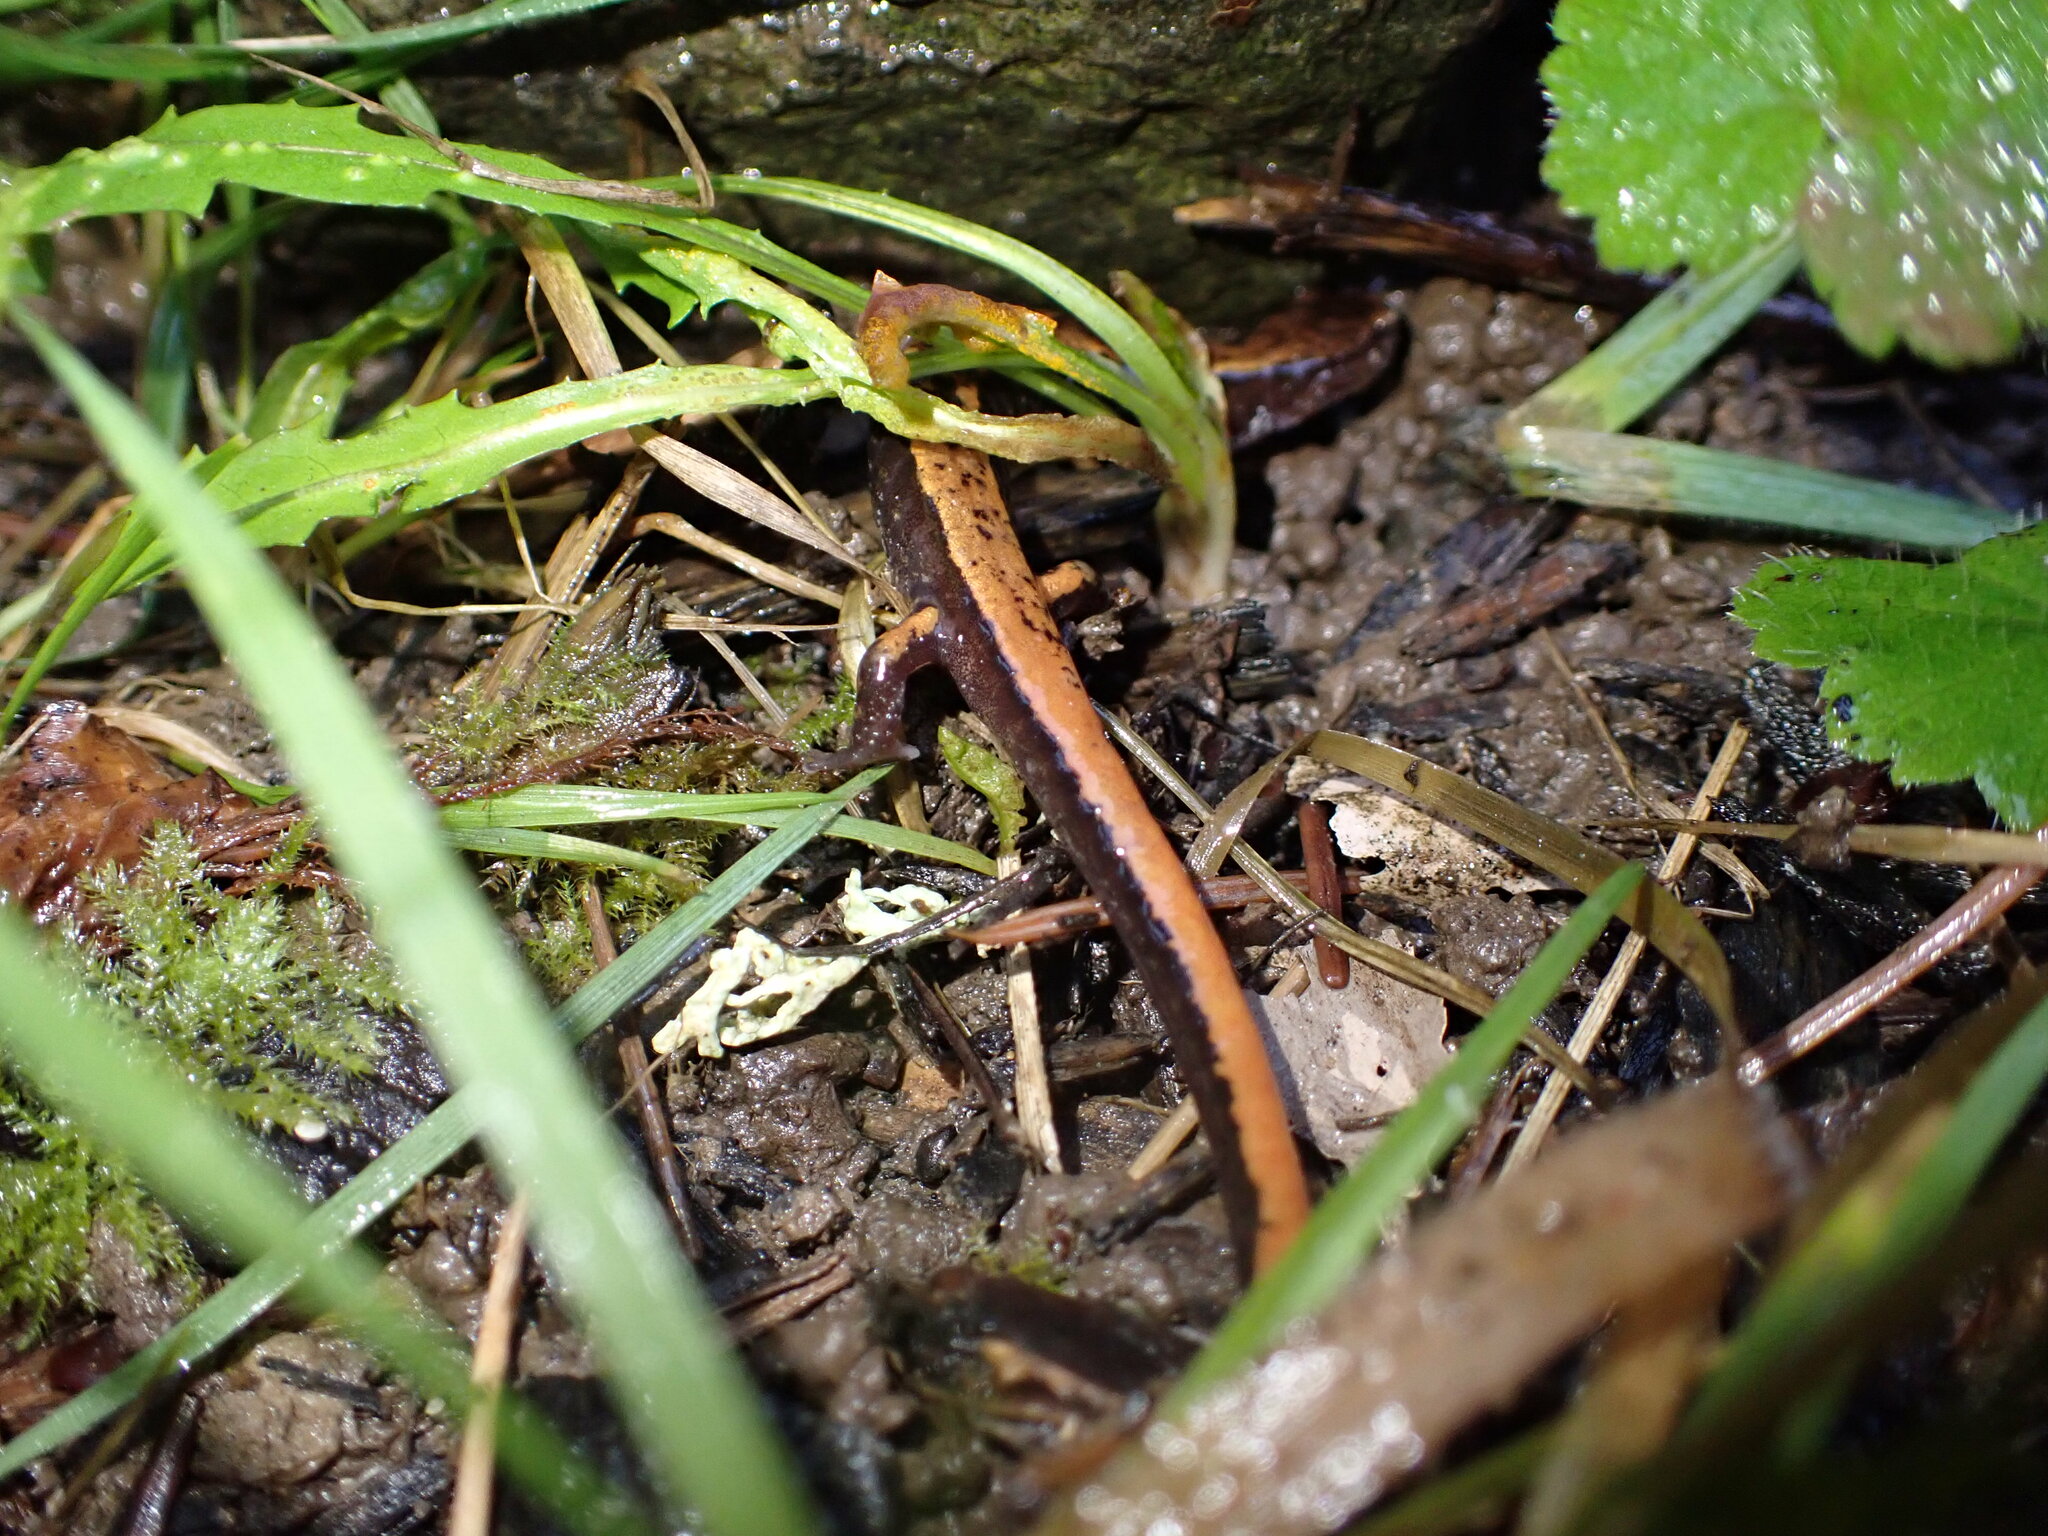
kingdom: Animalia
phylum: Chordata
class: Amphibia
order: Caudata
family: Plethodontidae
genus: Plethodon
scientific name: Plethodon vehiculum
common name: Western red-backed salamander
